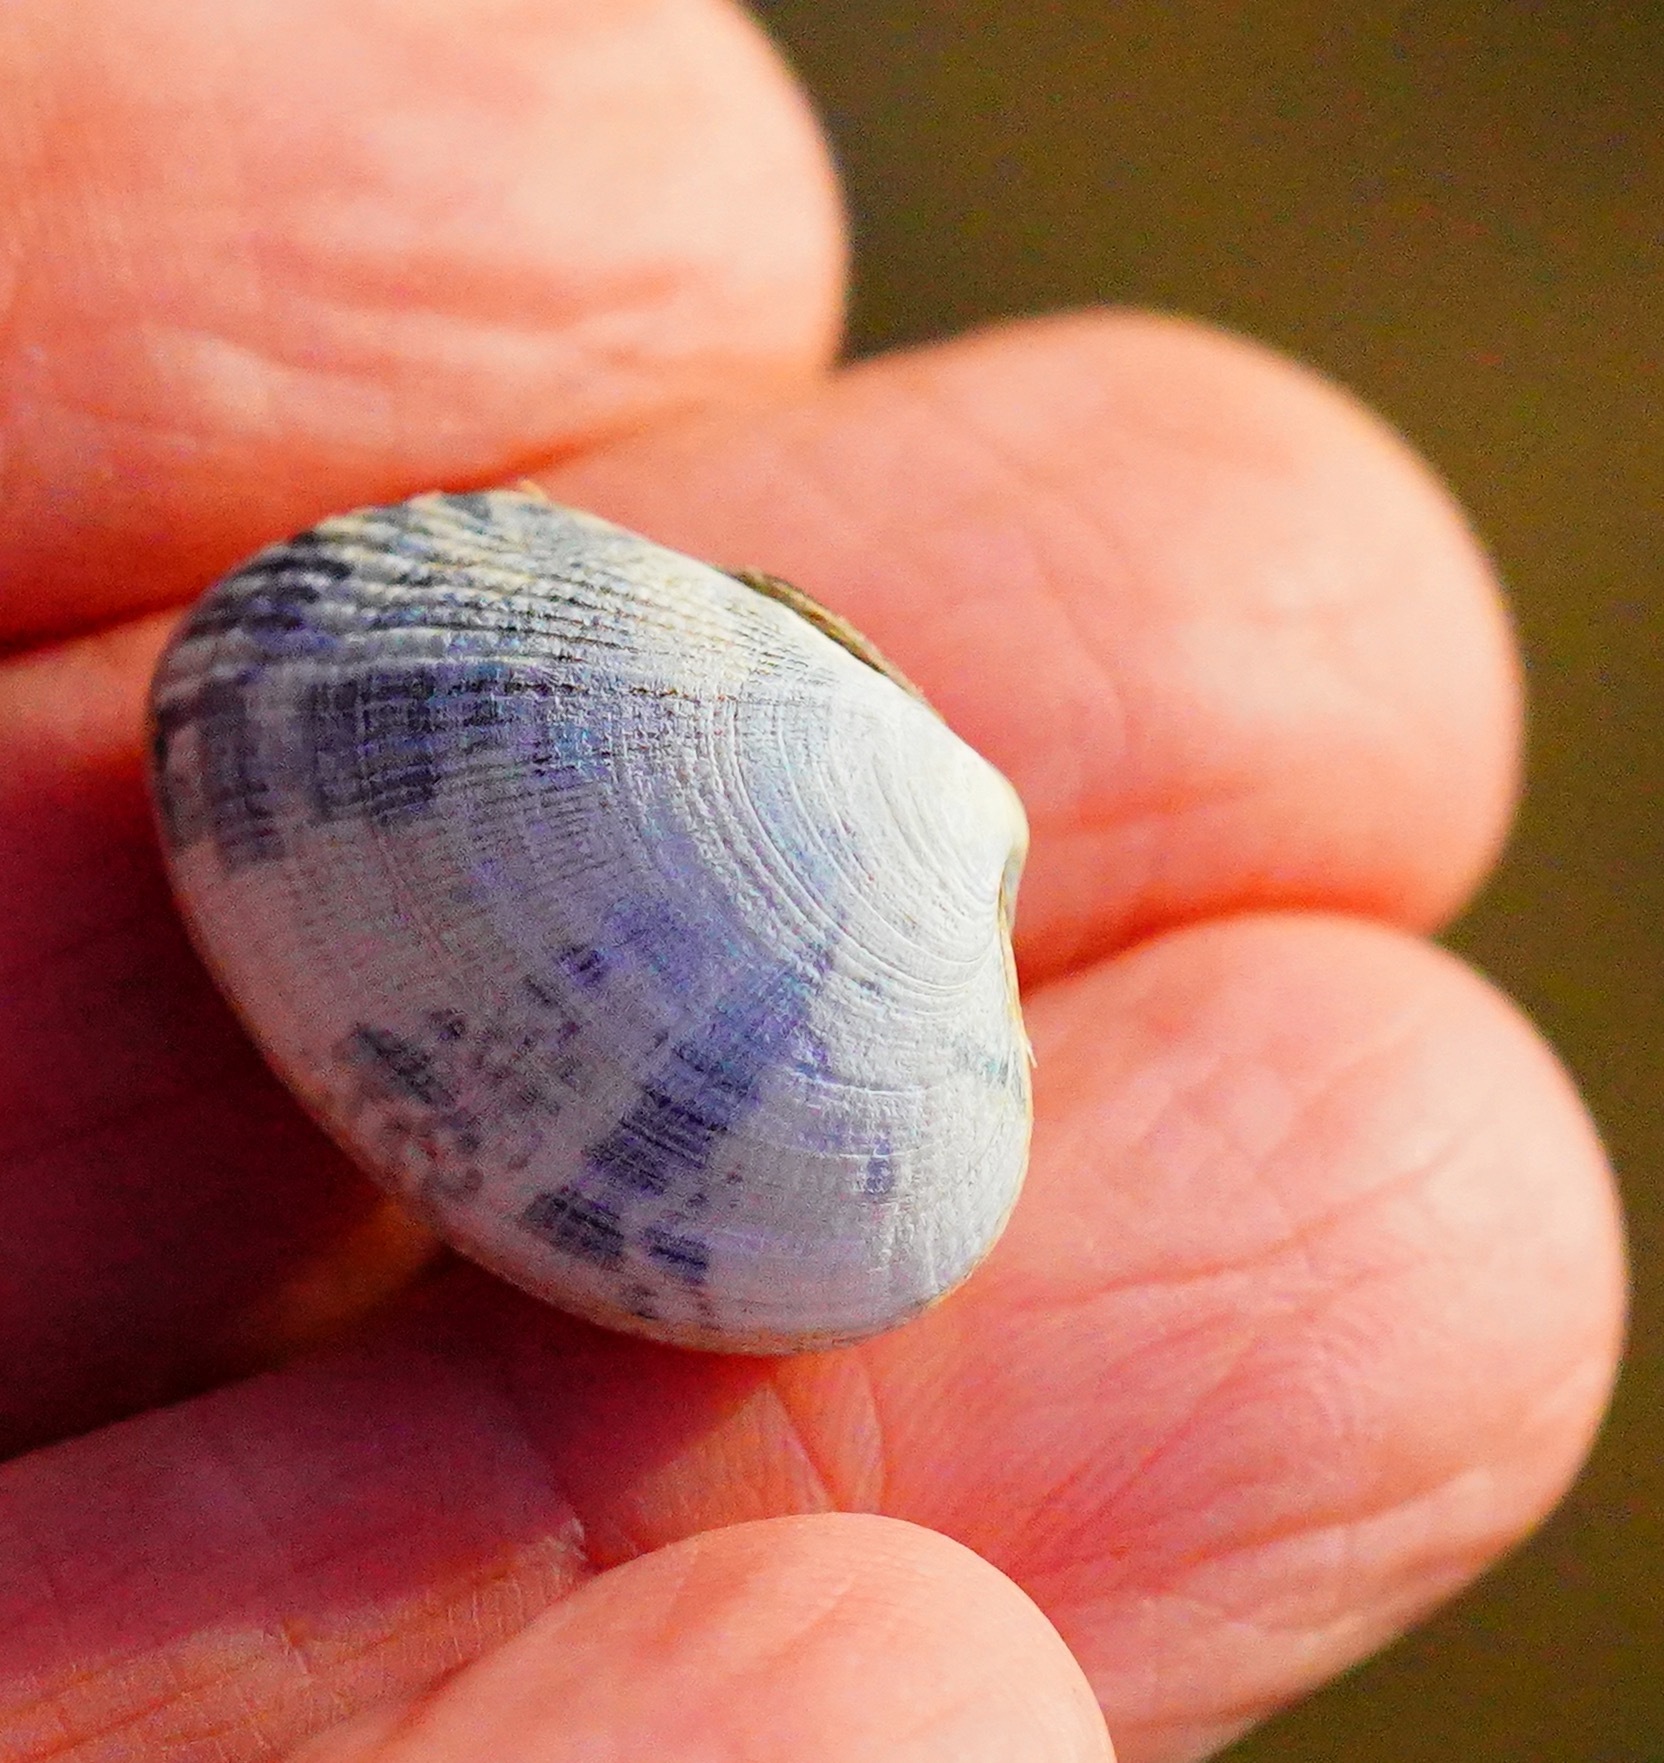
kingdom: Animalia
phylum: Mollusca
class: Bivalvia
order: Venerida
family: Veneridae
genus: Ruditapes
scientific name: Ruditapes philippinarum
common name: Manila clam
